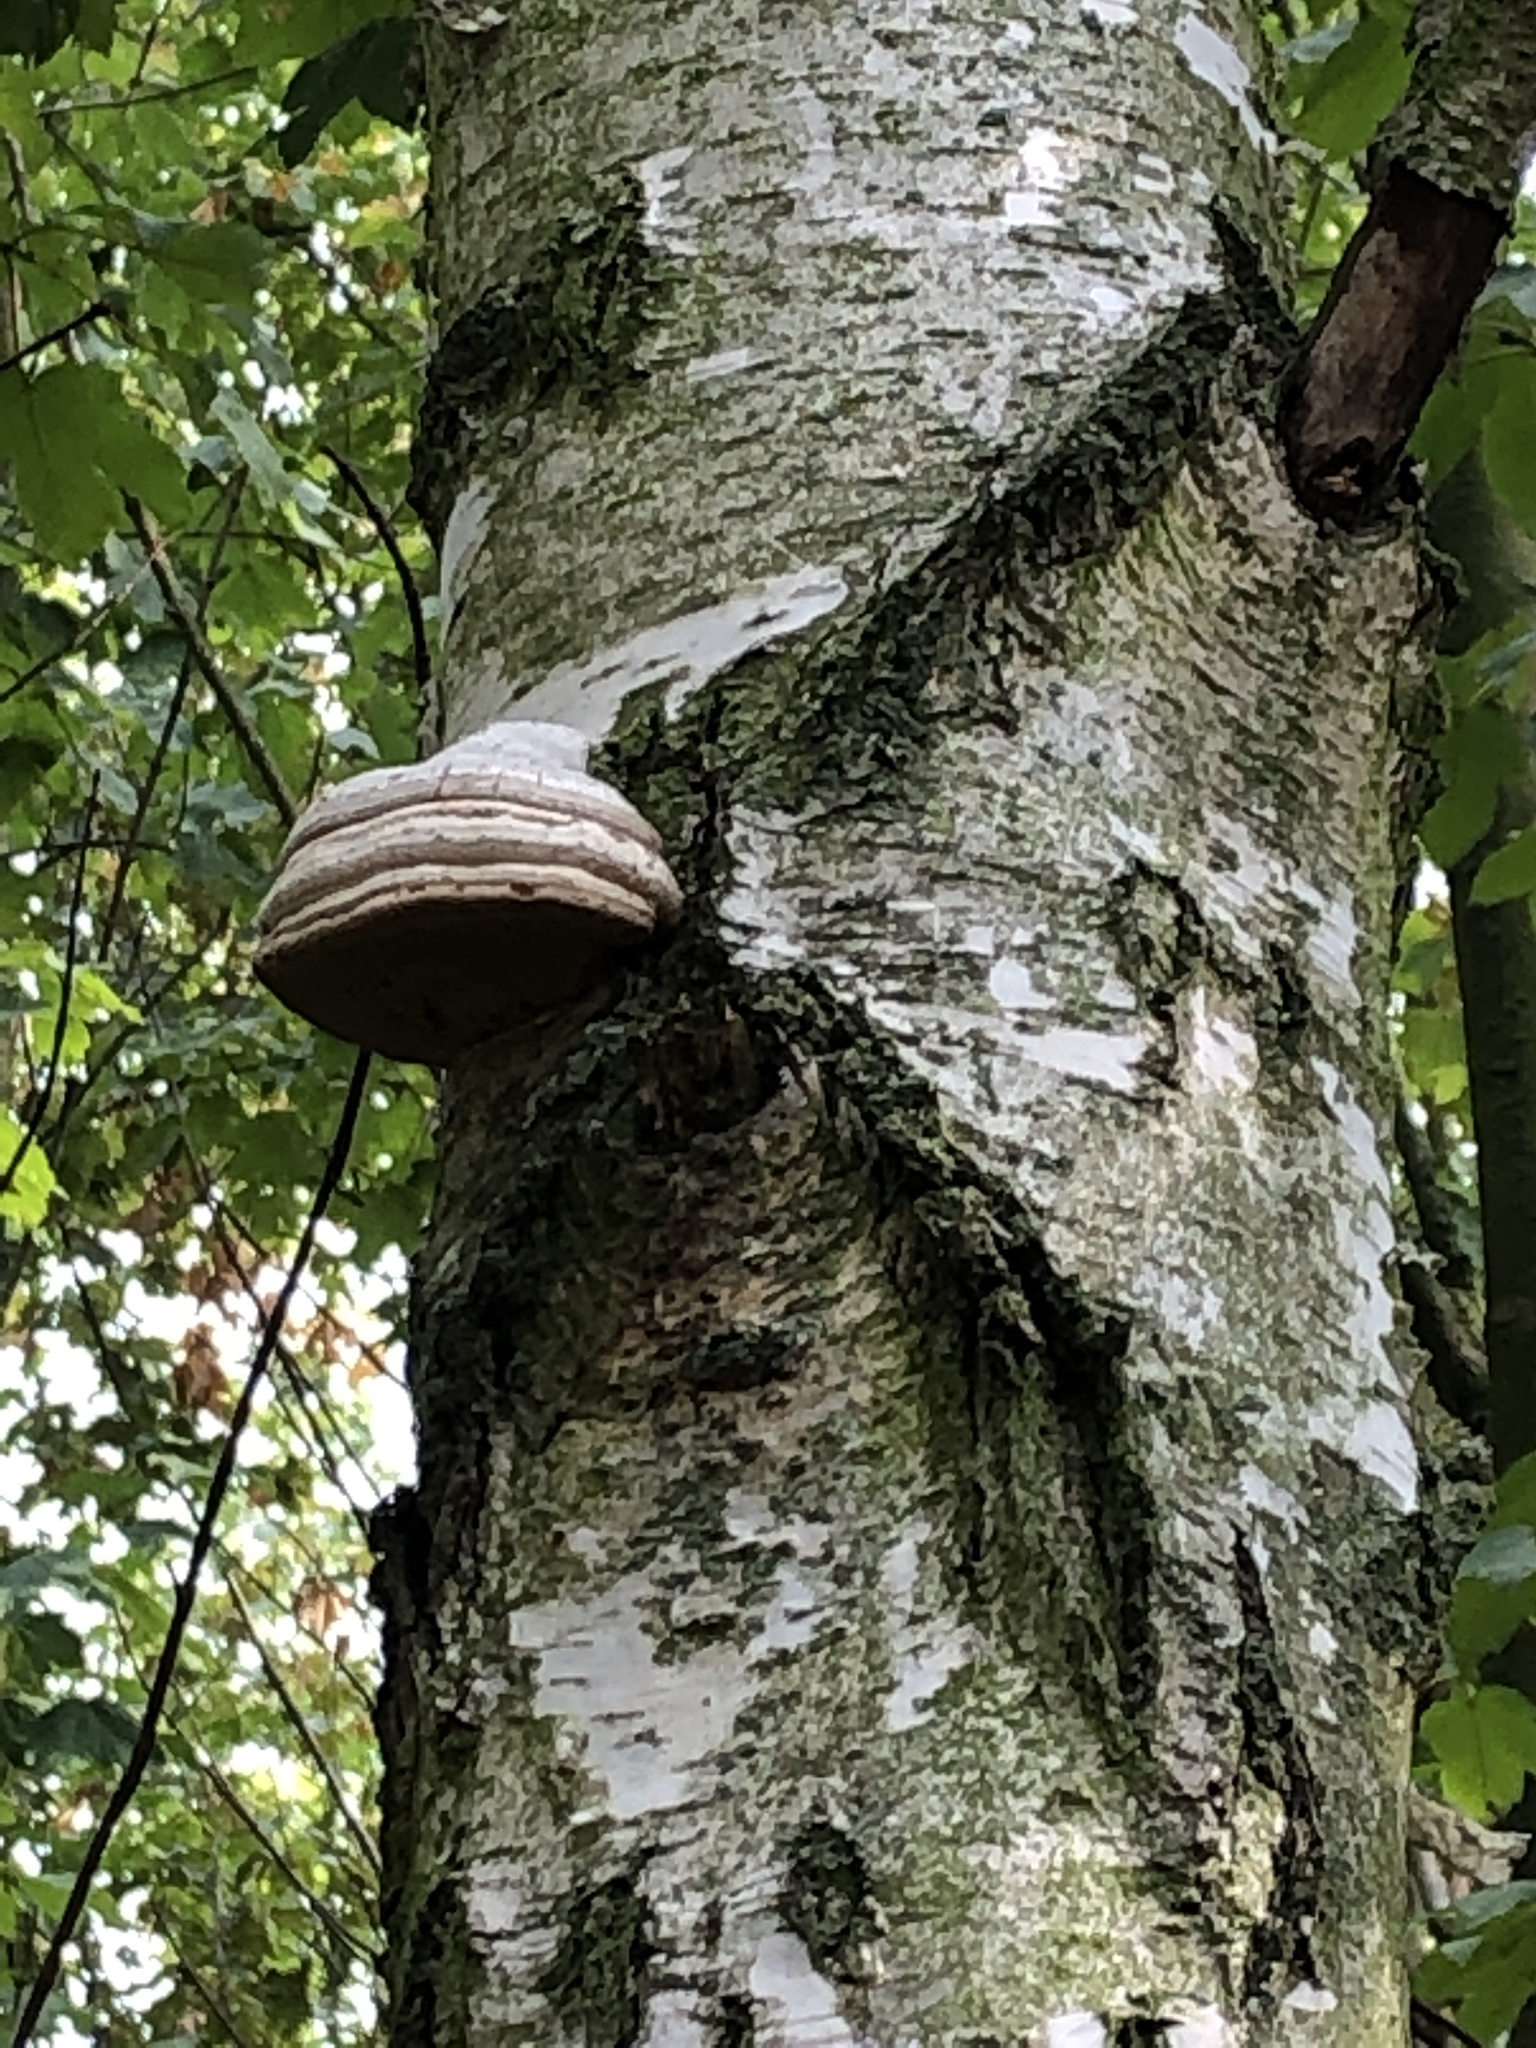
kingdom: Fungi
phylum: Basidiomycota
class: Agaricomycetes
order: Polyporales
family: Polyporaceae
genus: Fomes
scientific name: Fomes fomentarius
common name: Hoof fungus
